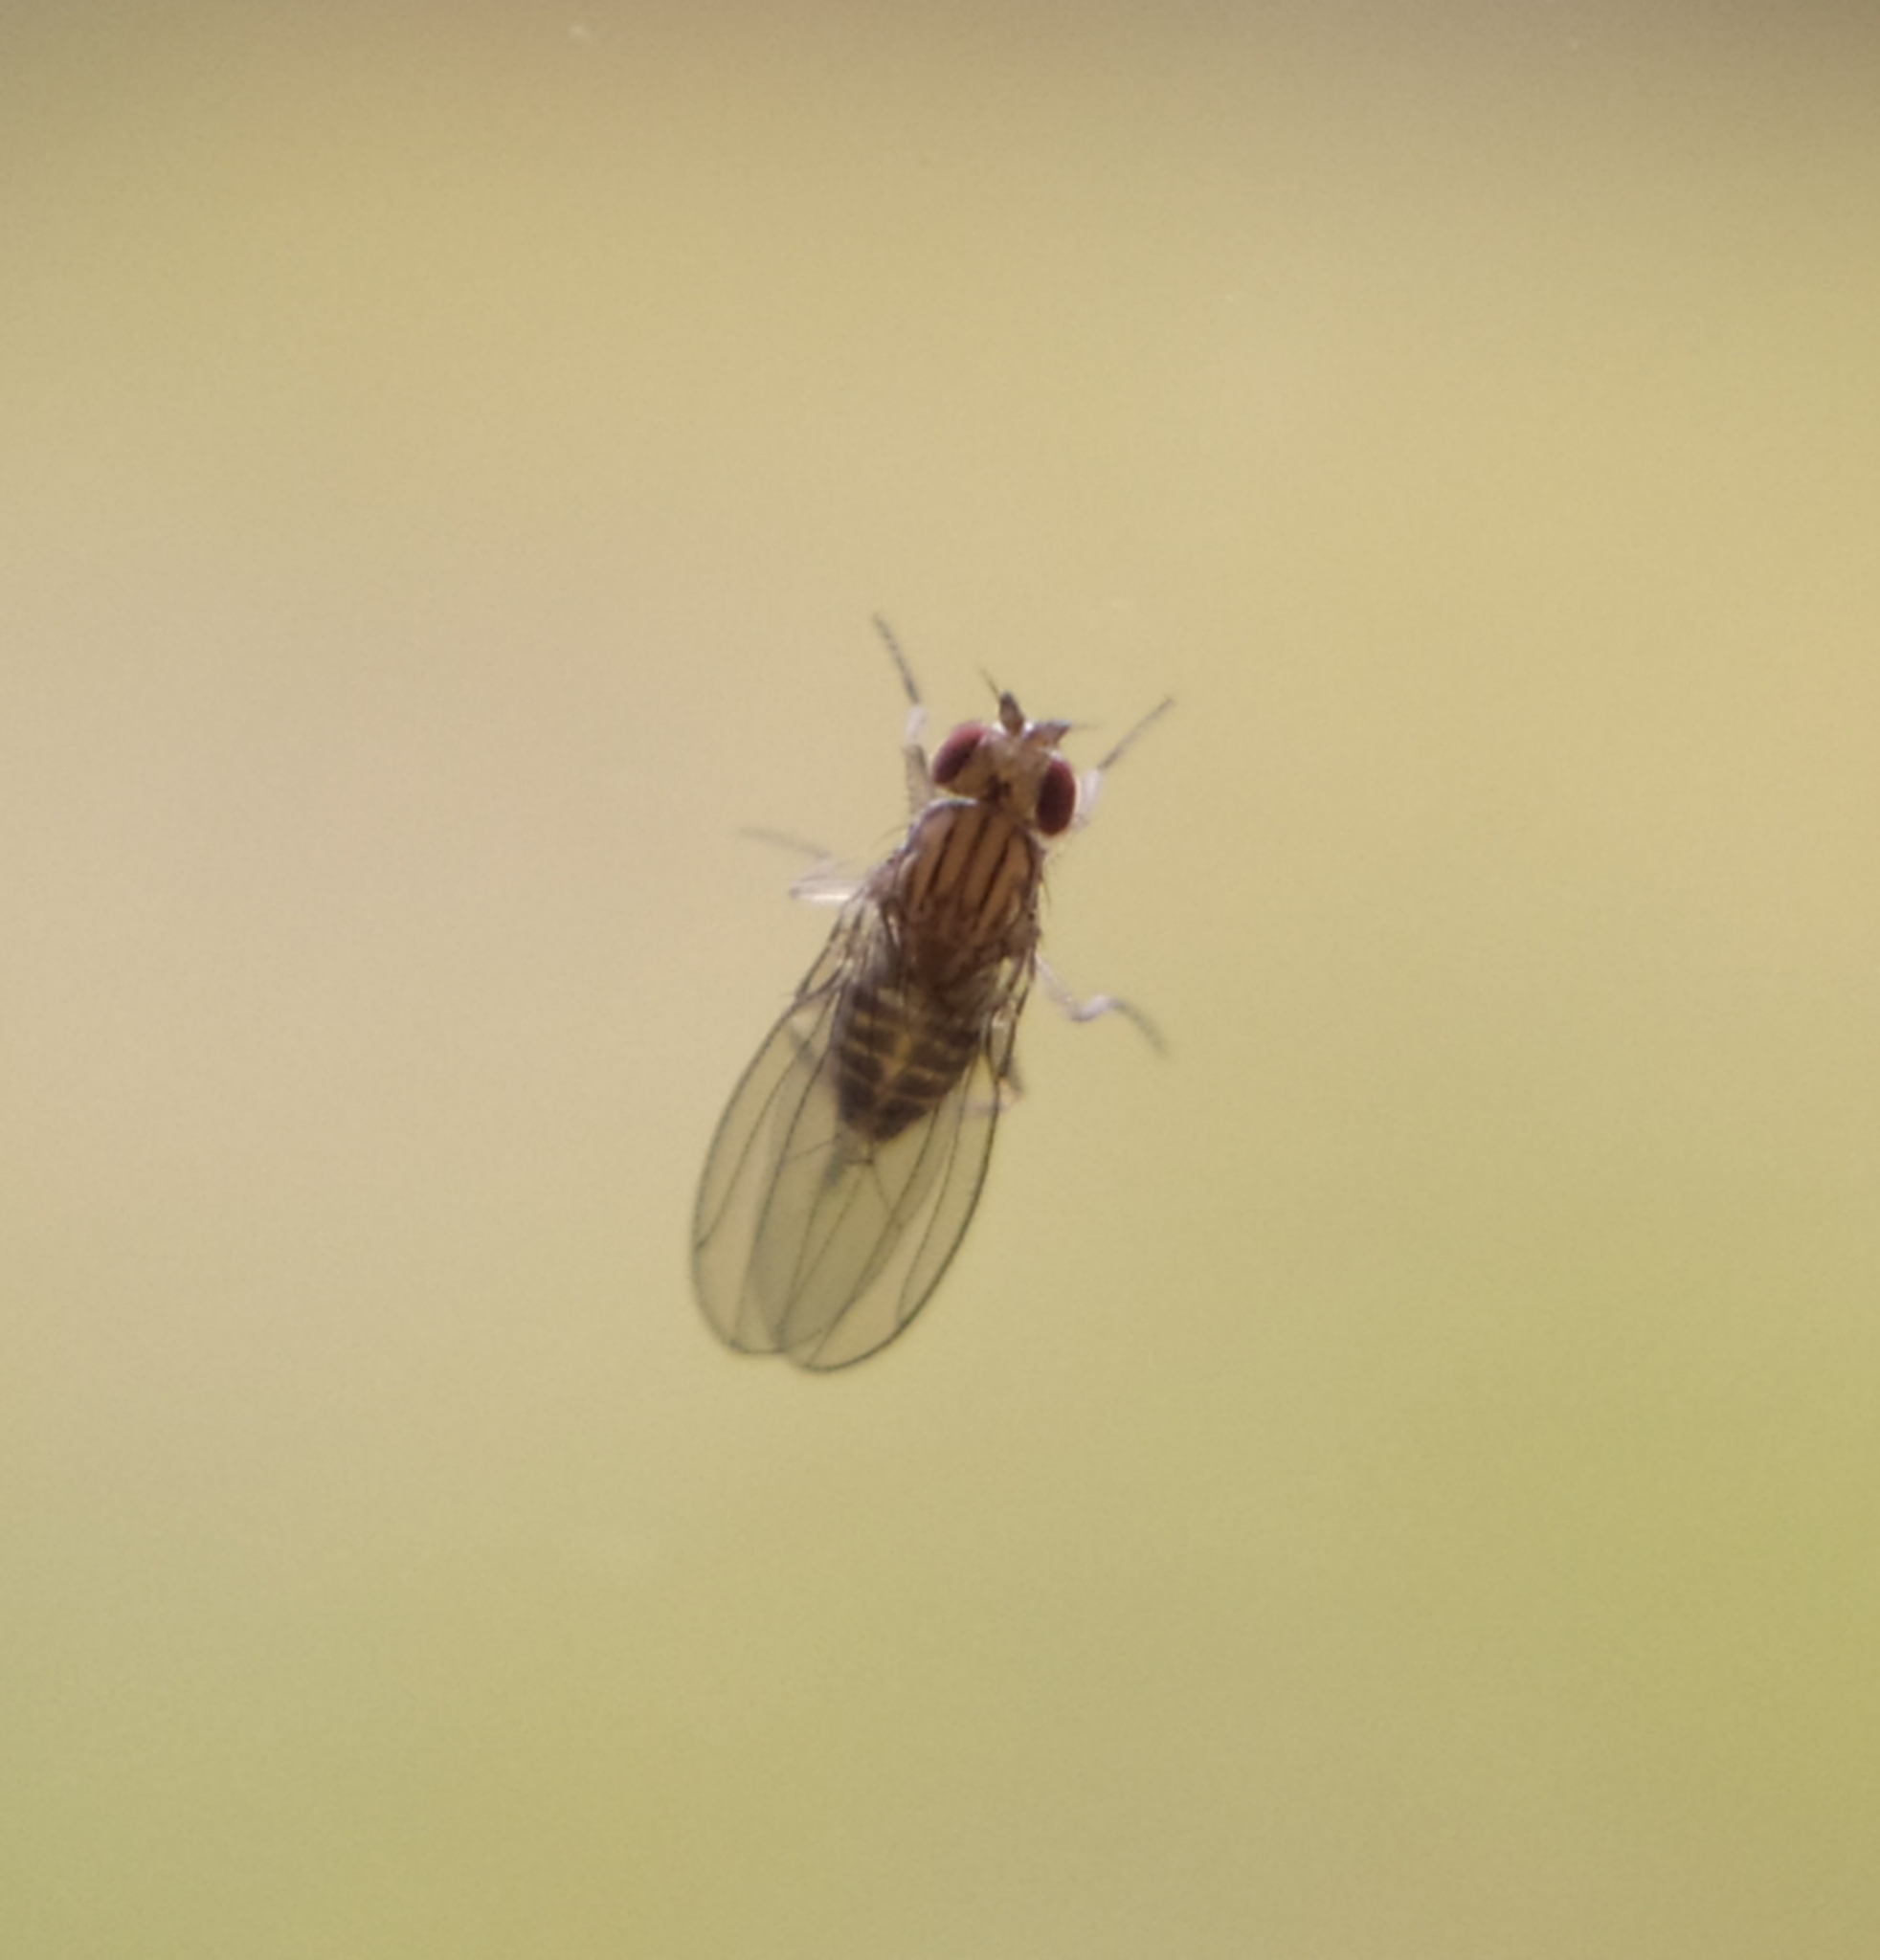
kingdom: Animalia
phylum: Arthropoda
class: Insecta
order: Diptera
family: Drosophilidae
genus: Drosophila
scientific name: Drosophila busckii
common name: Pomace fly
